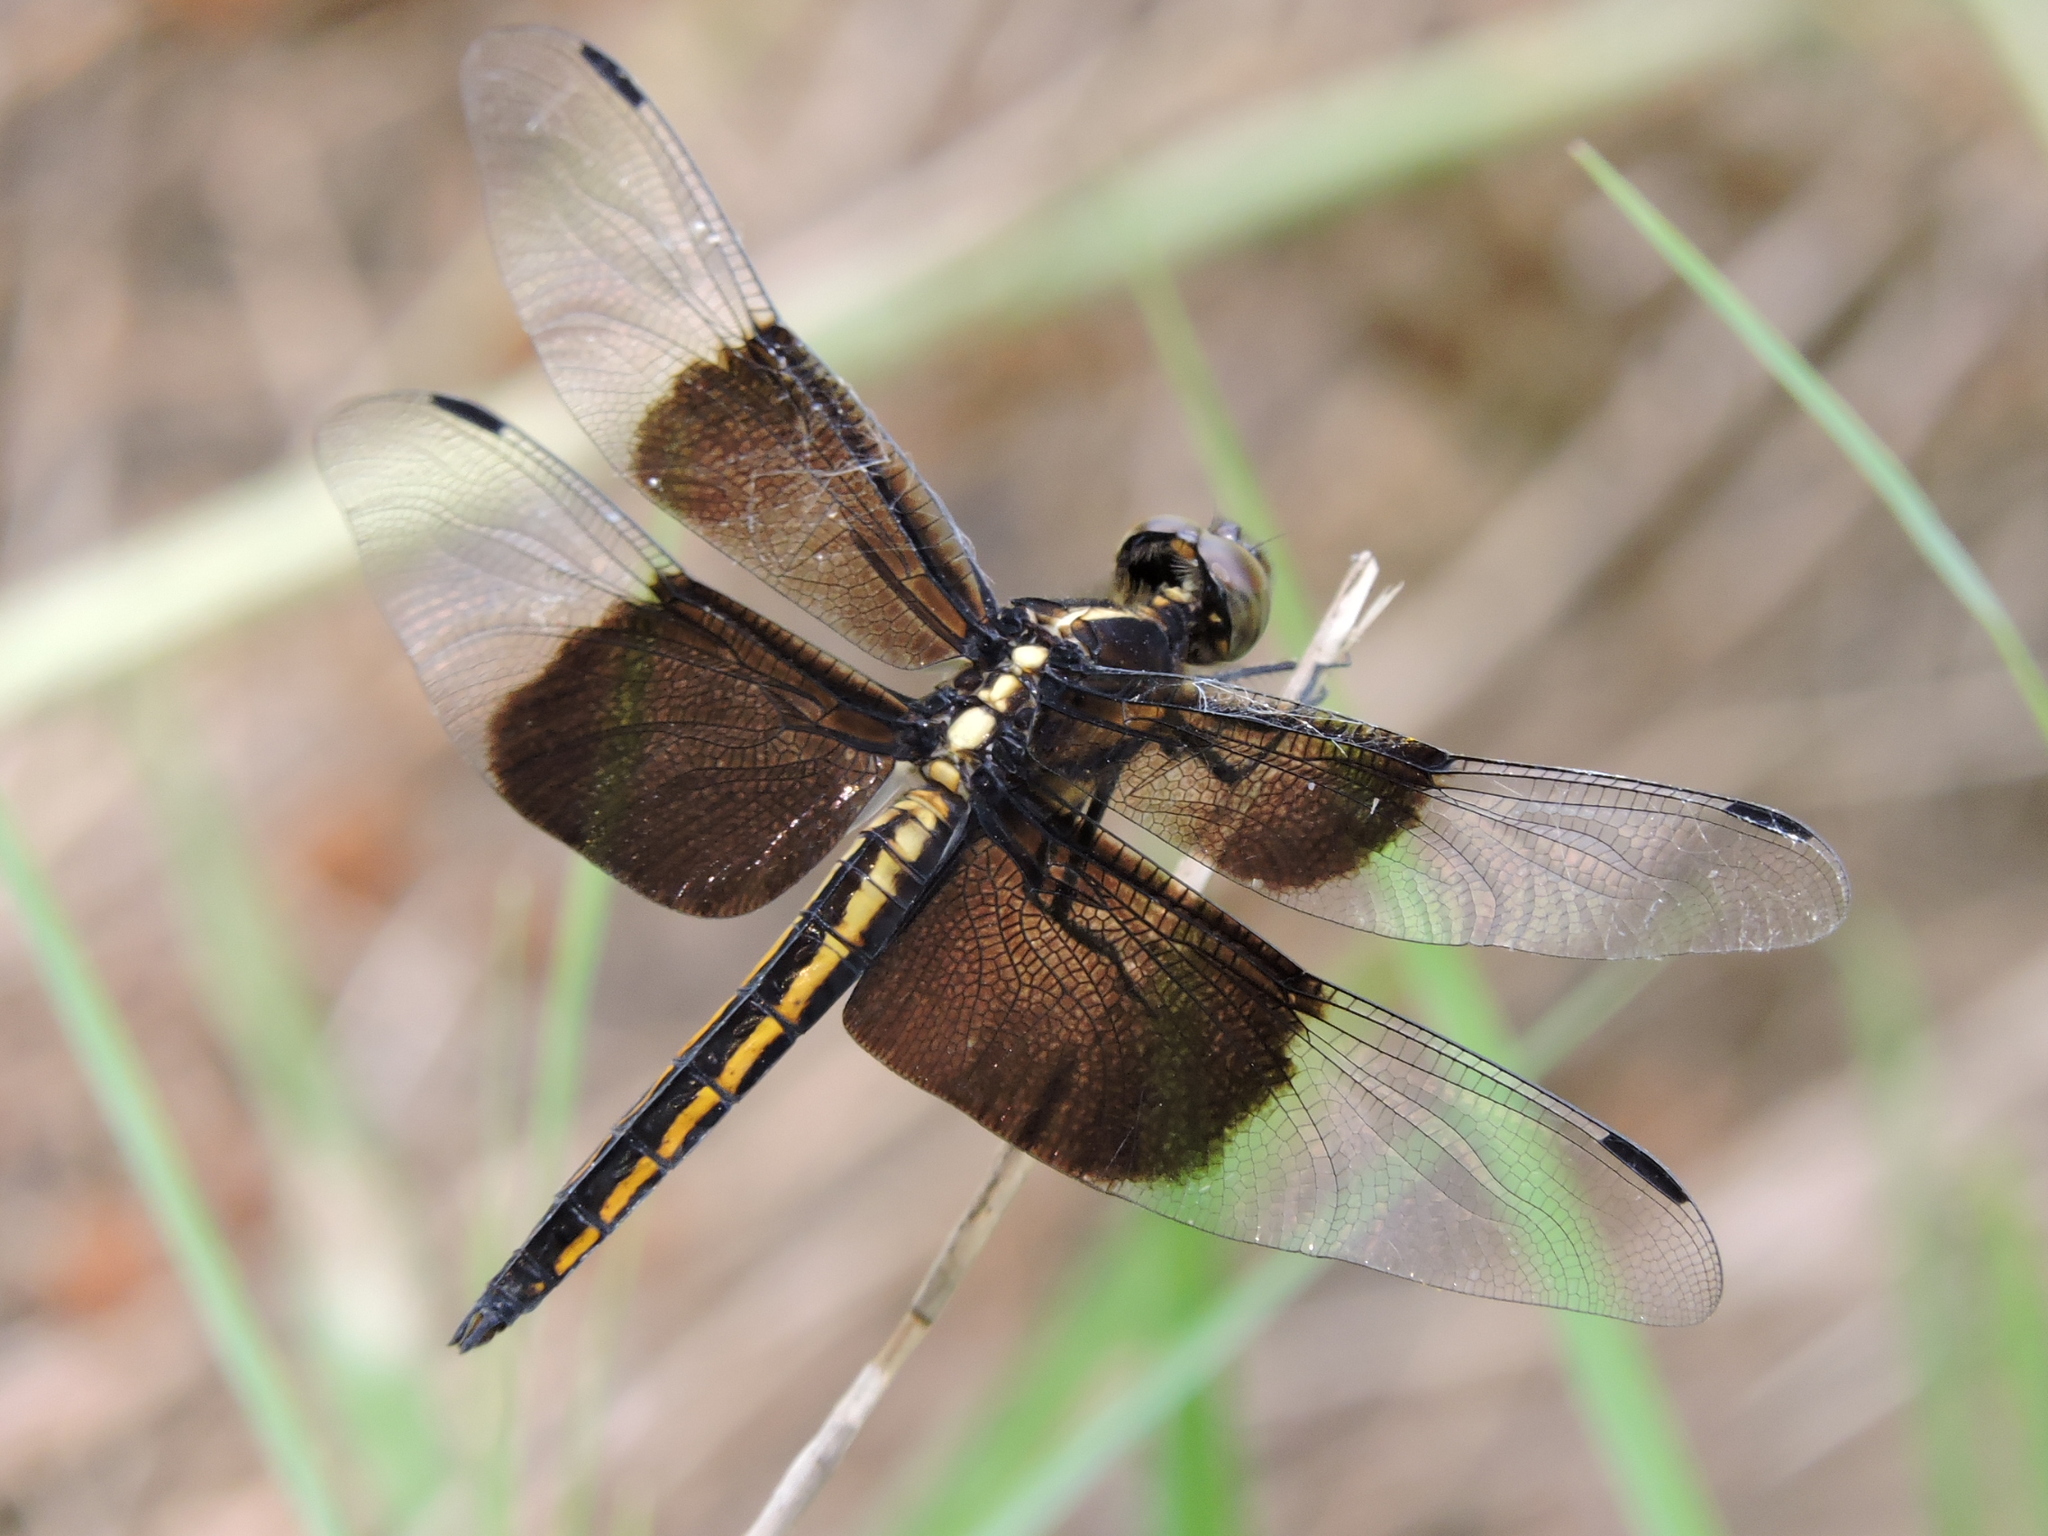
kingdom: Animalia
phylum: Arthropoda
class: Insecta
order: Odonata
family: Libellulidae
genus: Libellula
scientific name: Libellula luctuosa
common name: Widow skimmer
